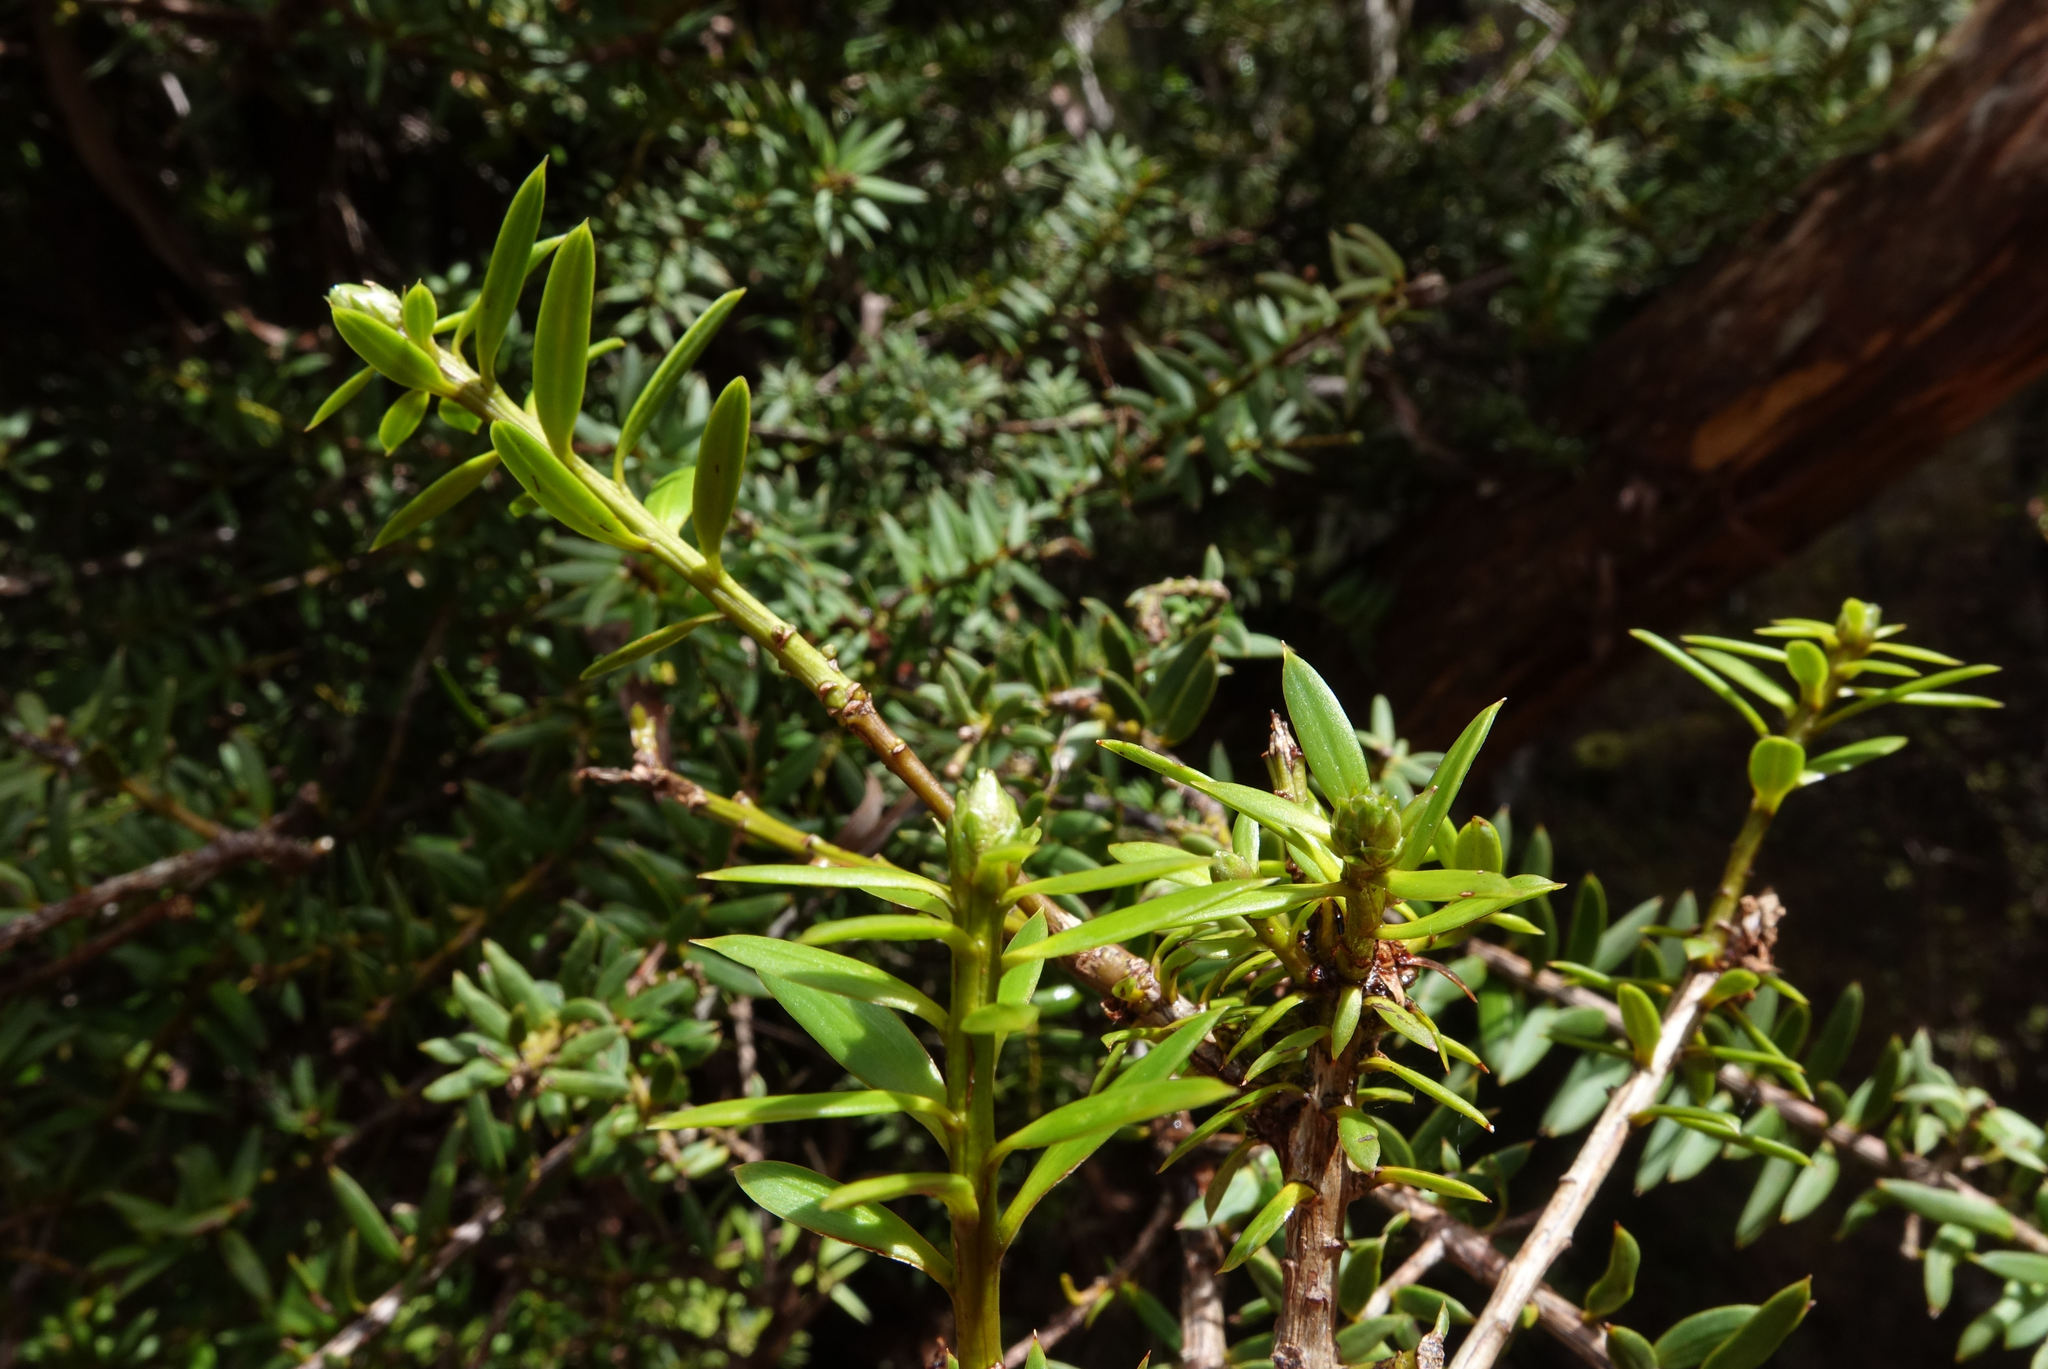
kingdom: Plantae
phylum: Tracheophyta
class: Pinopsida
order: Pinales
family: Podocarpaceae
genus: Podocarpus
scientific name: Podocarpus laetus
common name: Hall's totara
